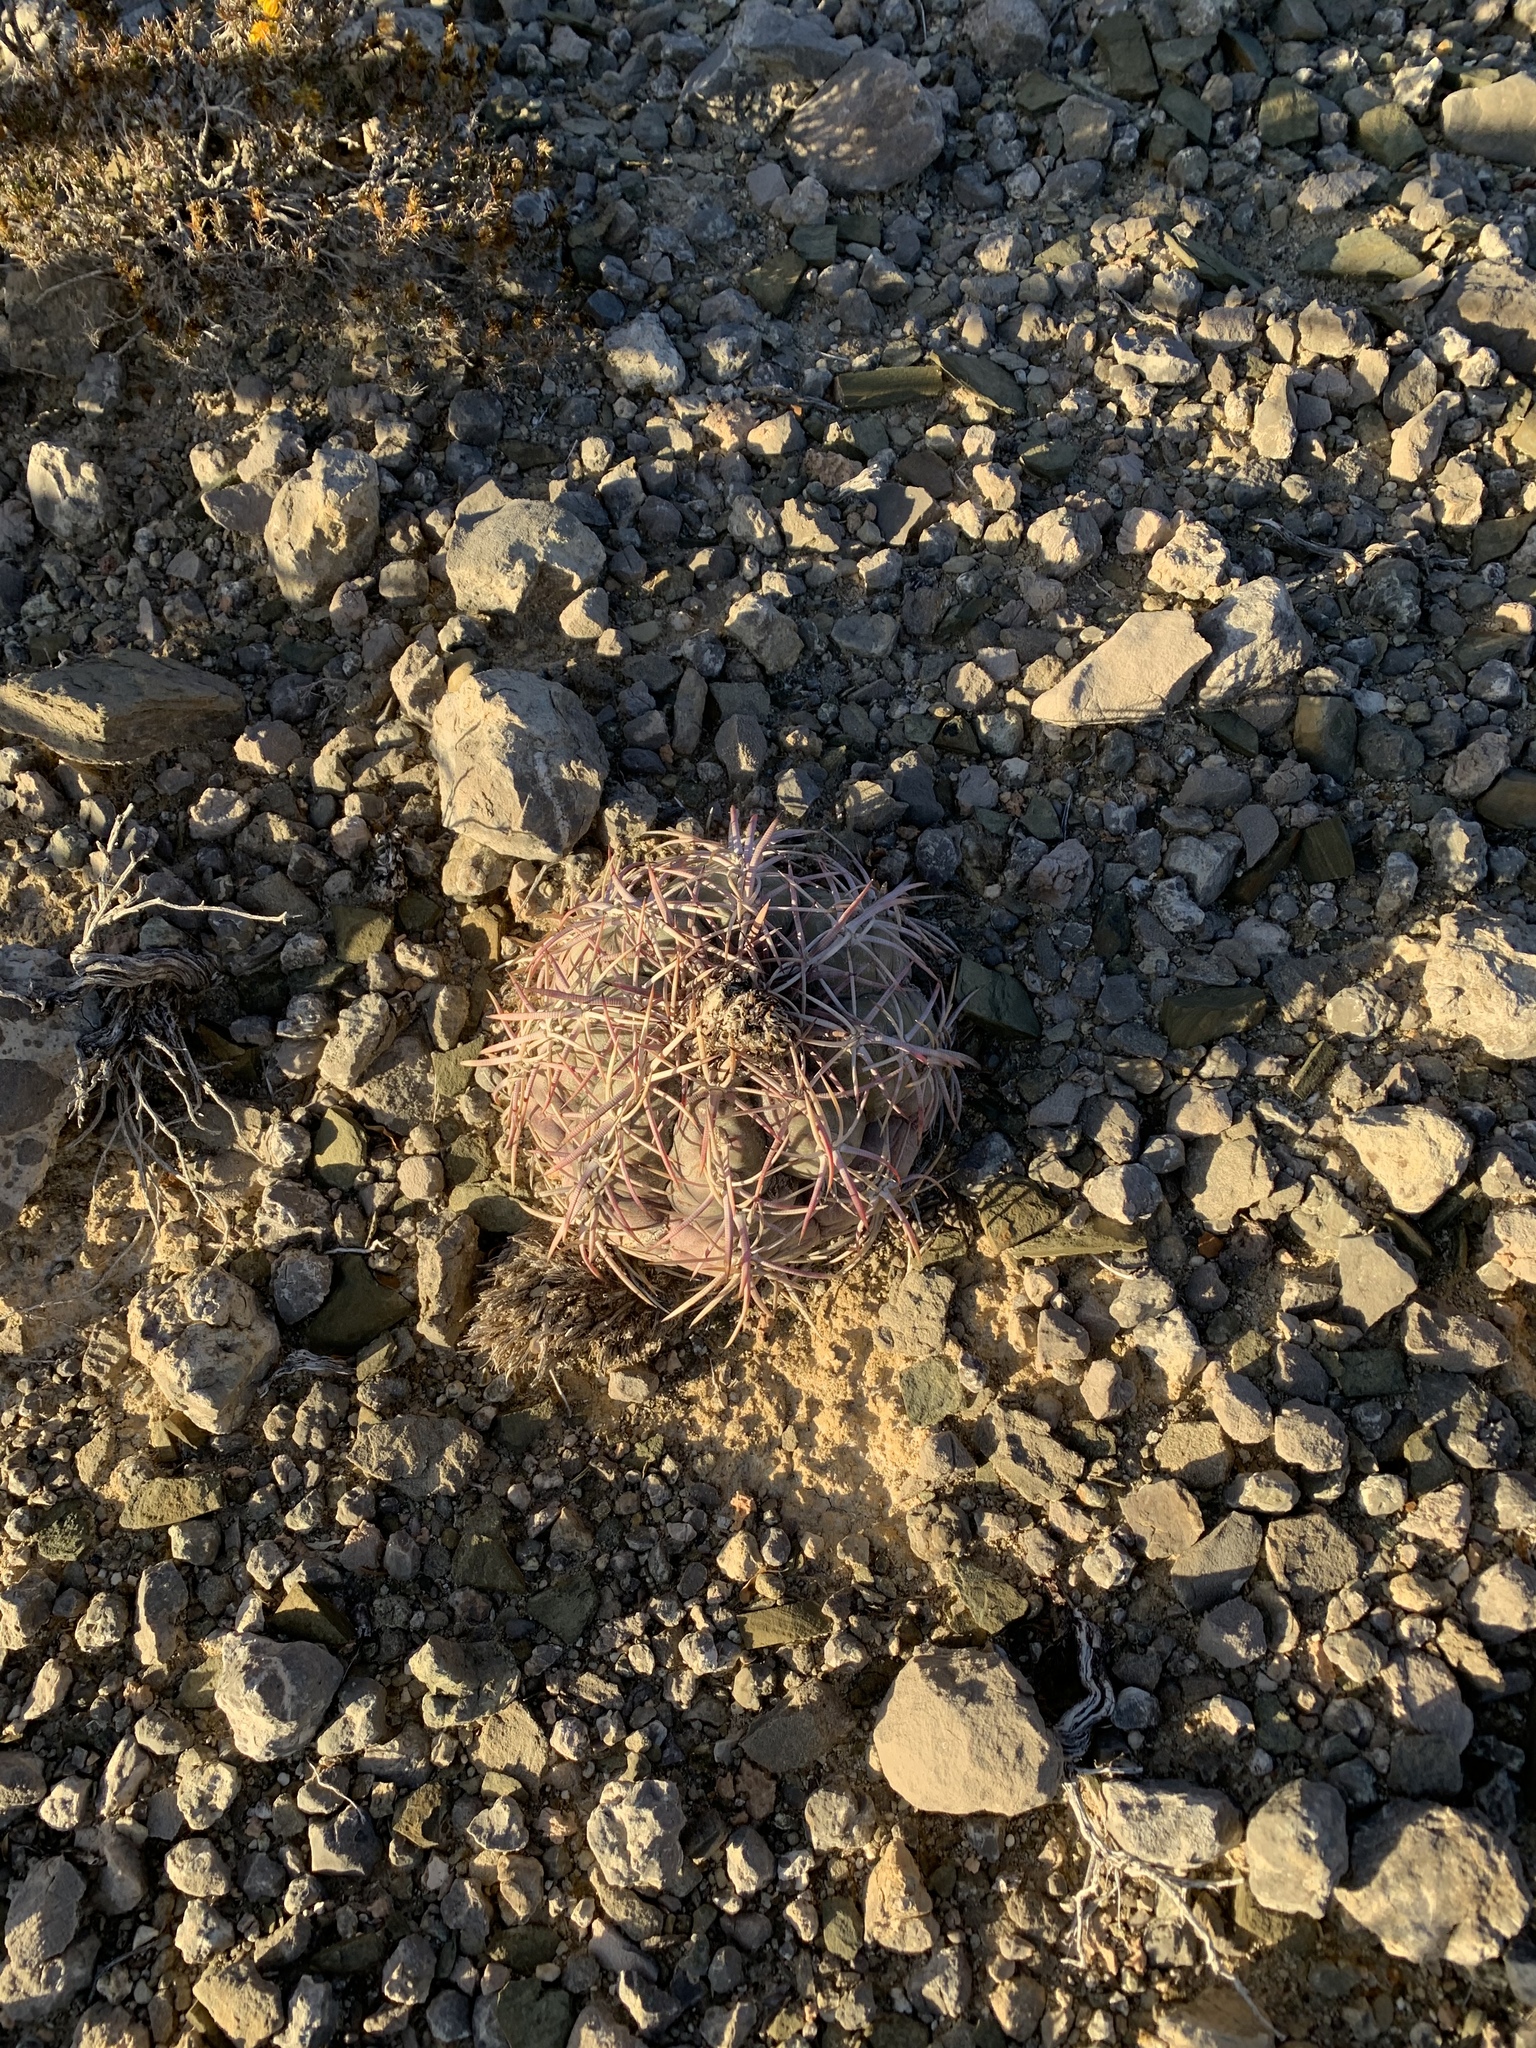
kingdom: Plantae
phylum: Tracheophyta
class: Magnoliopsida
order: Caryophyllales
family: Cactaceae
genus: Echinocactus
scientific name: Echinocactus horizonthalonius
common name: Devilshead
